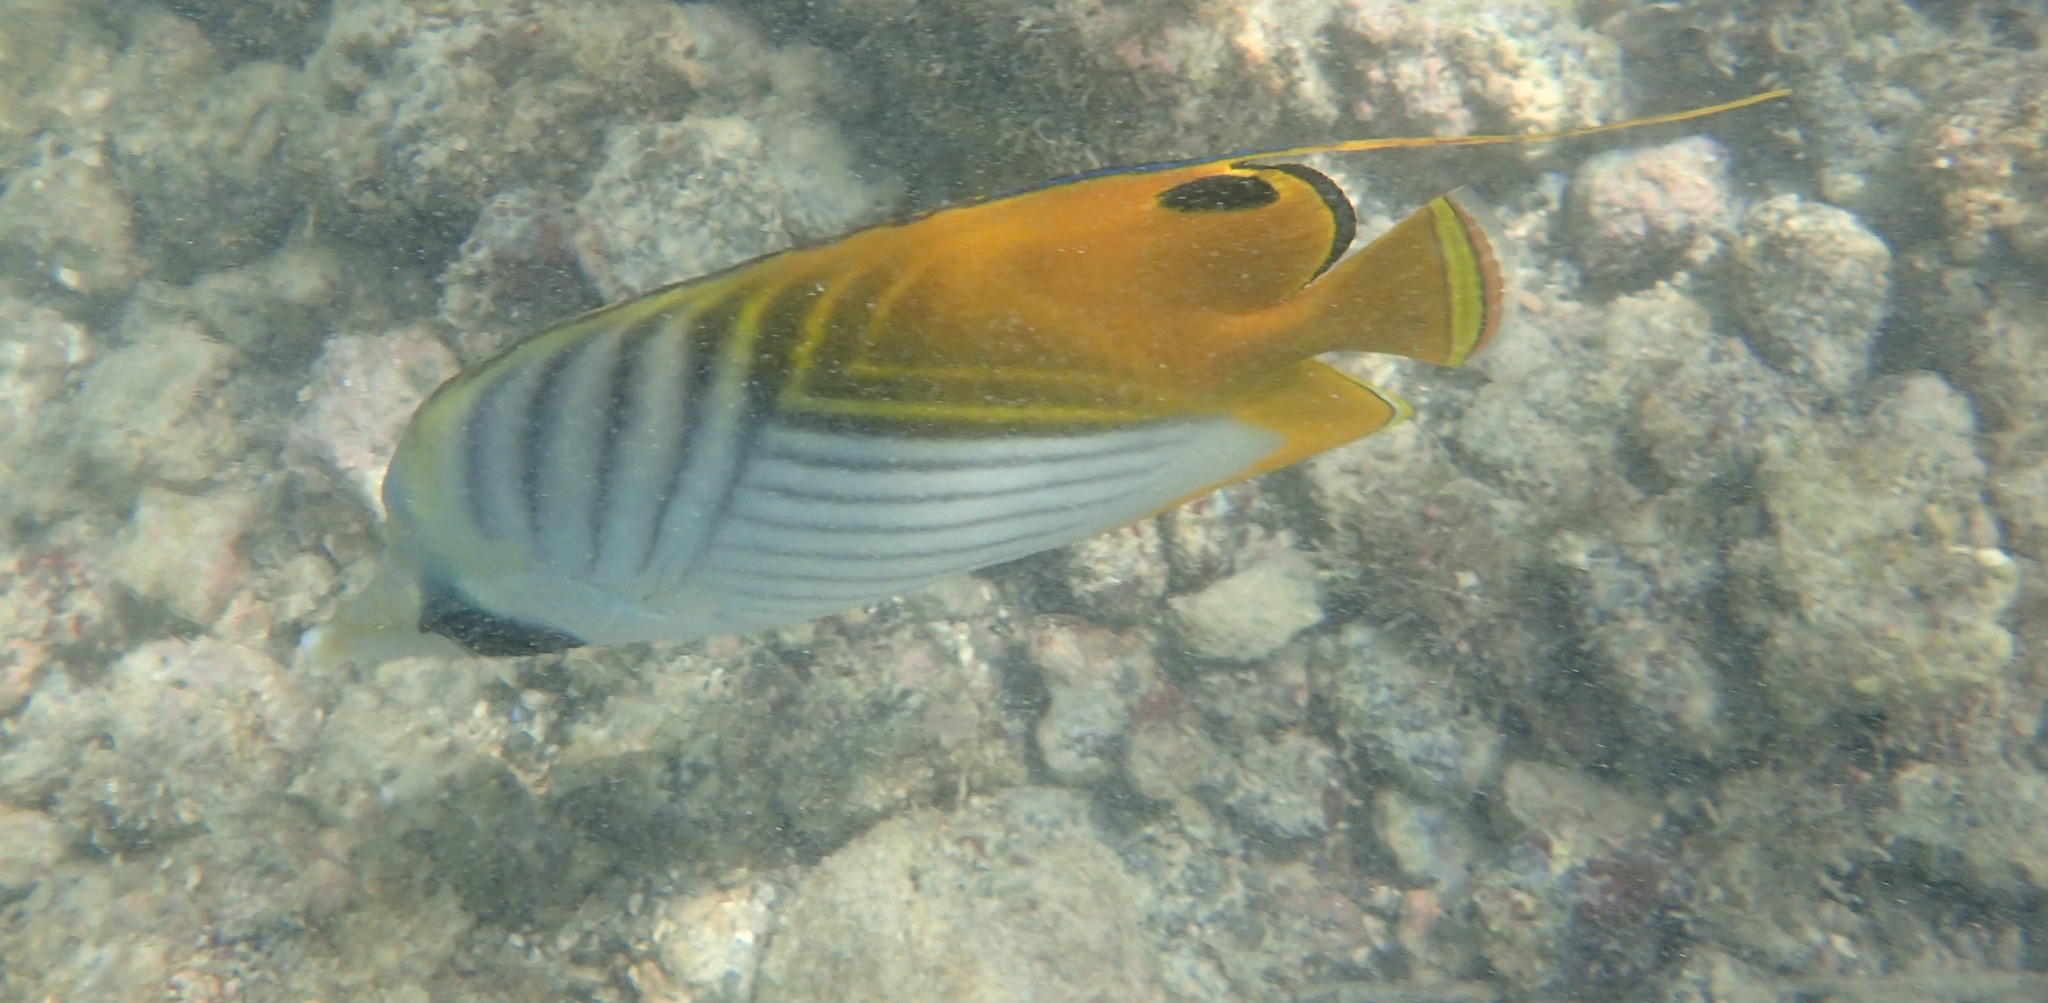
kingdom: Animalia
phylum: Chordata
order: Perciformes
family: Chaetodontidae
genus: Chaetodon
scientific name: Chaetodon auriga
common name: Threadfin butterflyfish
